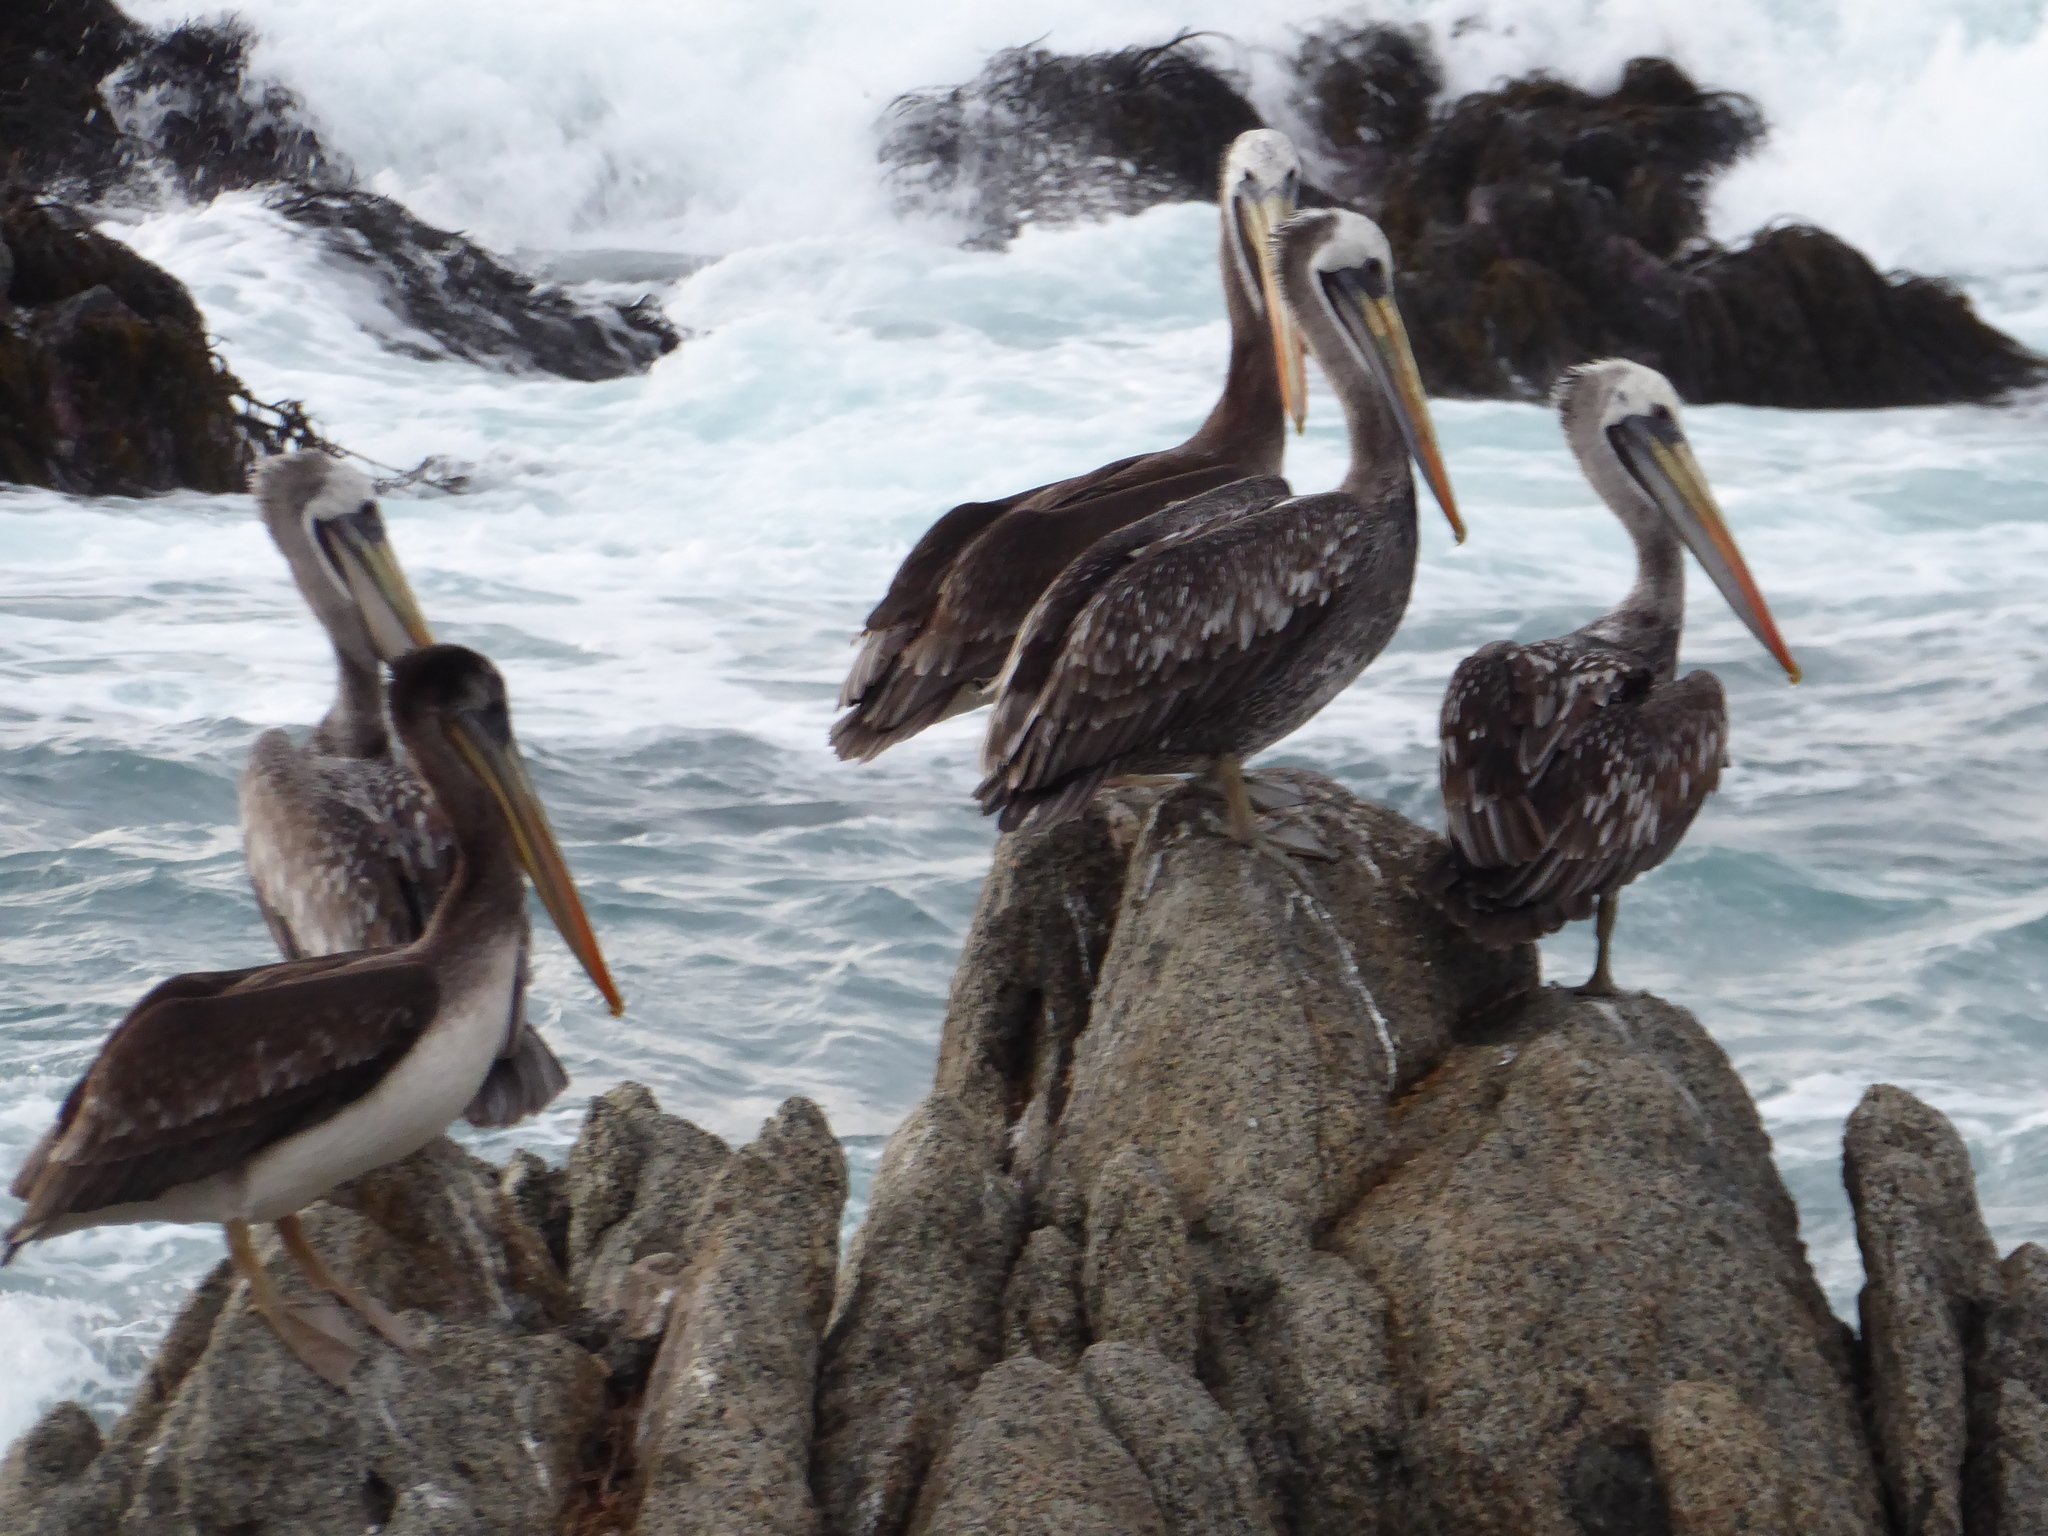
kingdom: Animalia
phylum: Chordata
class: Aves
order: Pelecaniformes
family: Pelecanidae
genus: Pelecanus
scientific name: Pelecanus thagus
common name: Peruvian pelican
